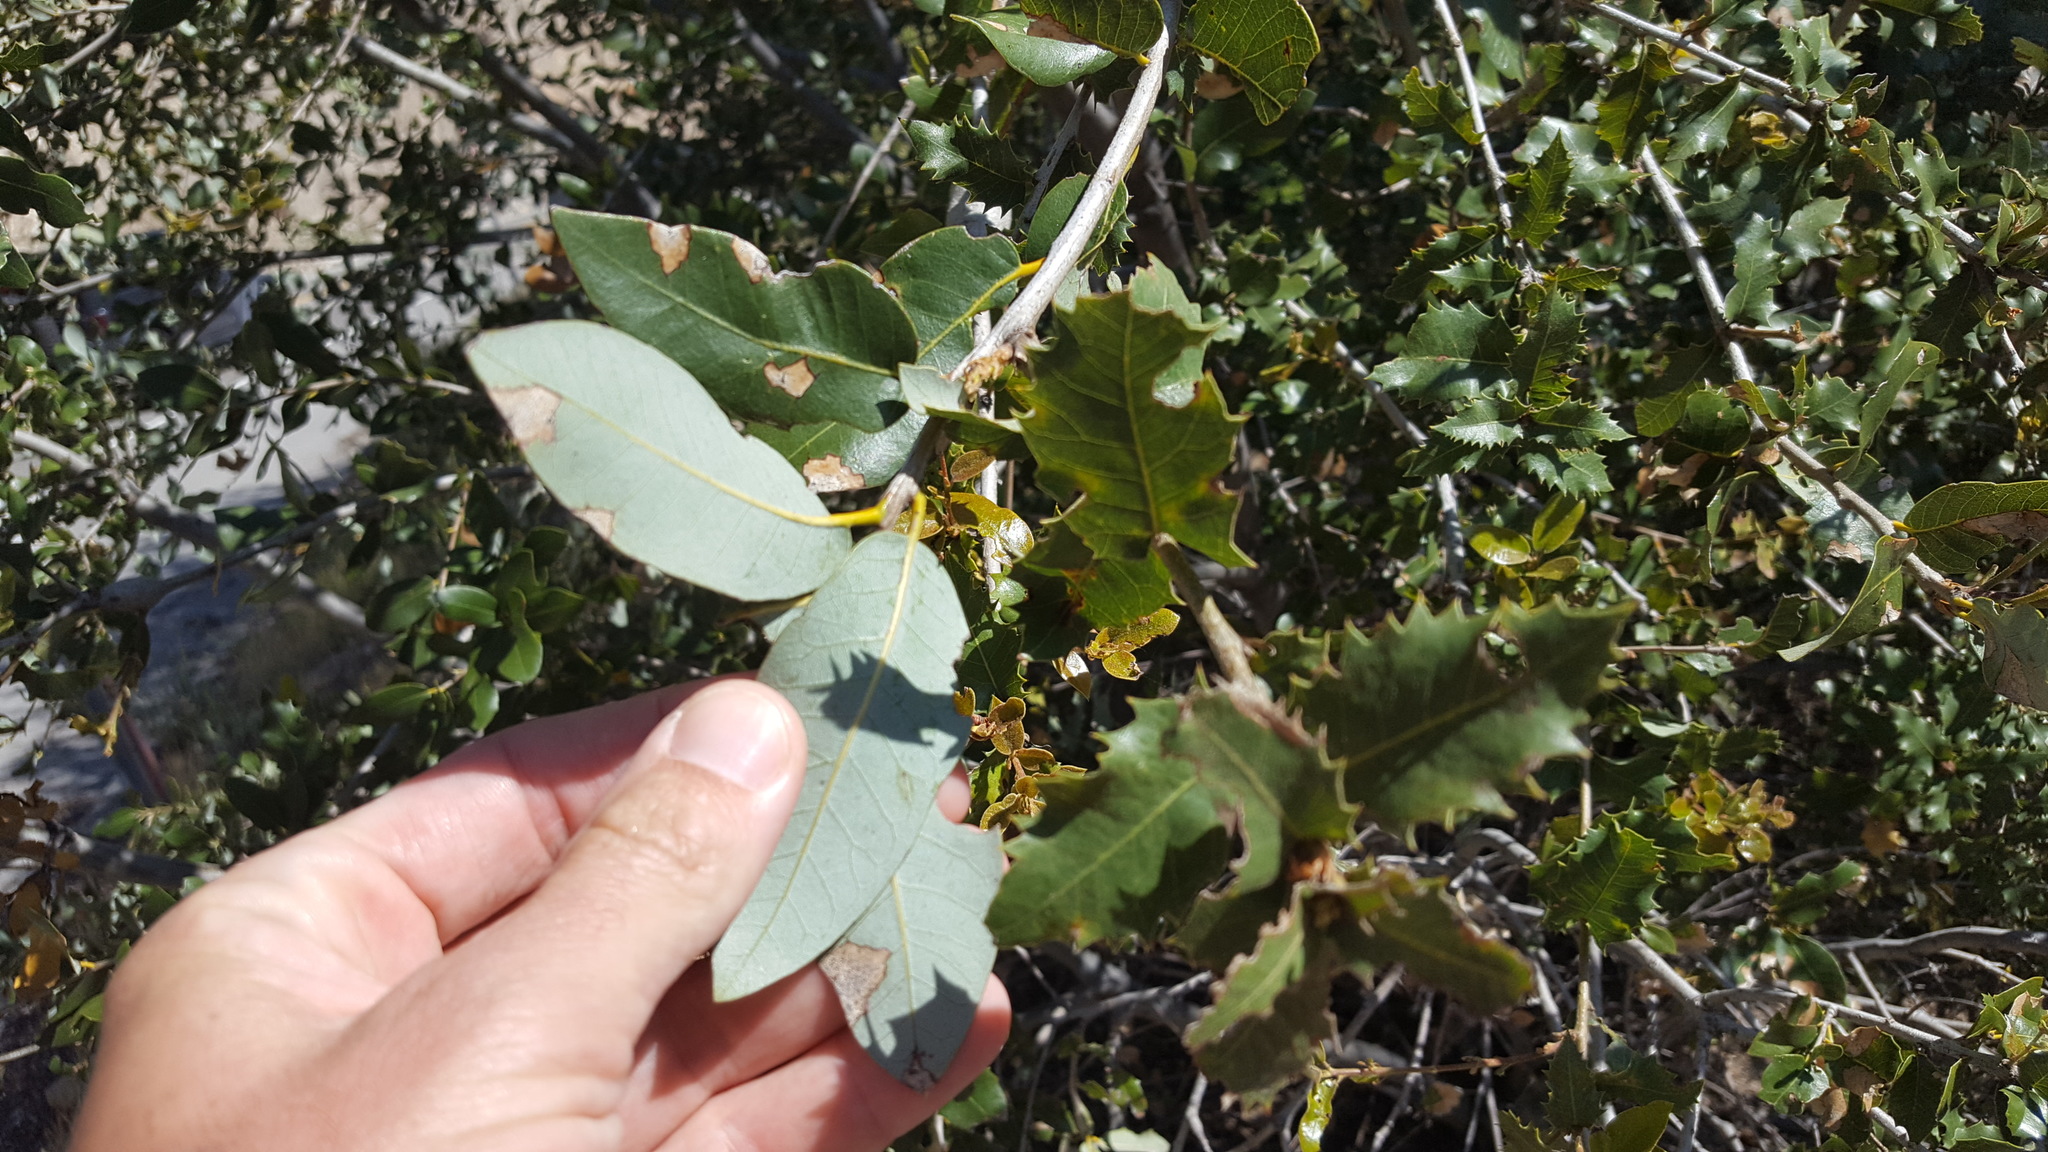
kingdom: Plantae
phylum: Tracheophyta
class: Magnoliopsida
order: Fagales
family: Fagaceae
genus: Quercus
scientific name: Quercus chrysolepis
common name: Canyon live oak
